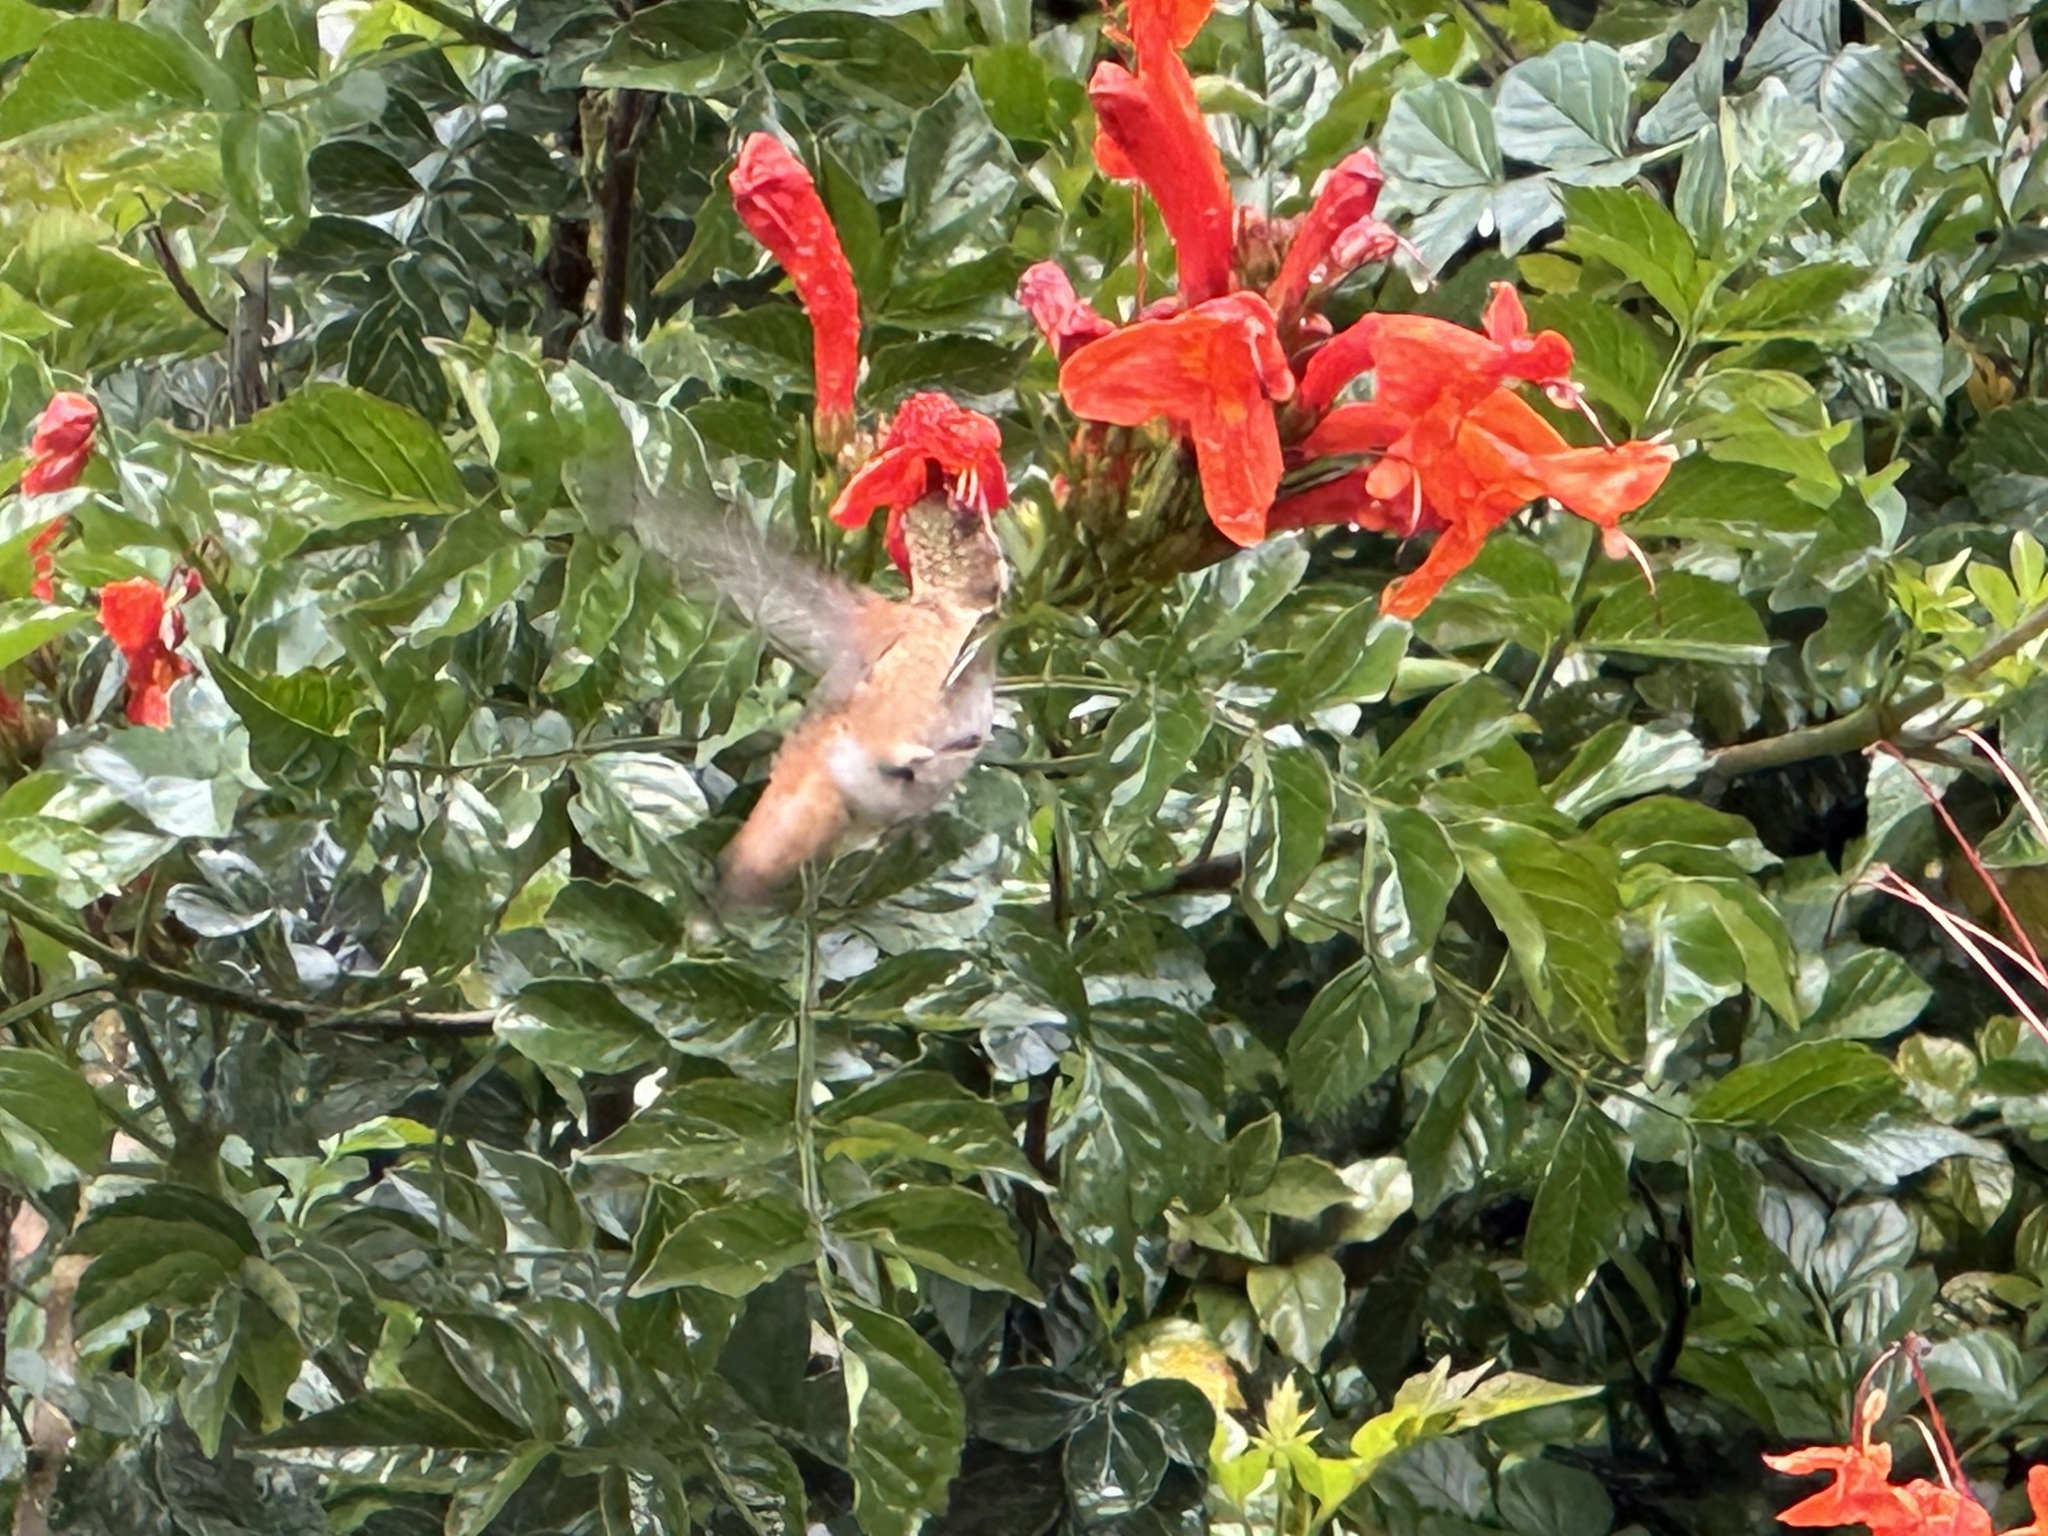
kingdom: Animalia
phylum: Chordata
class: Aves
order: Apodiformes
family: Trochilidae
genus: Selasphorus
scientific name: Selasphorus sasin
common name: Allen's hummingbird
